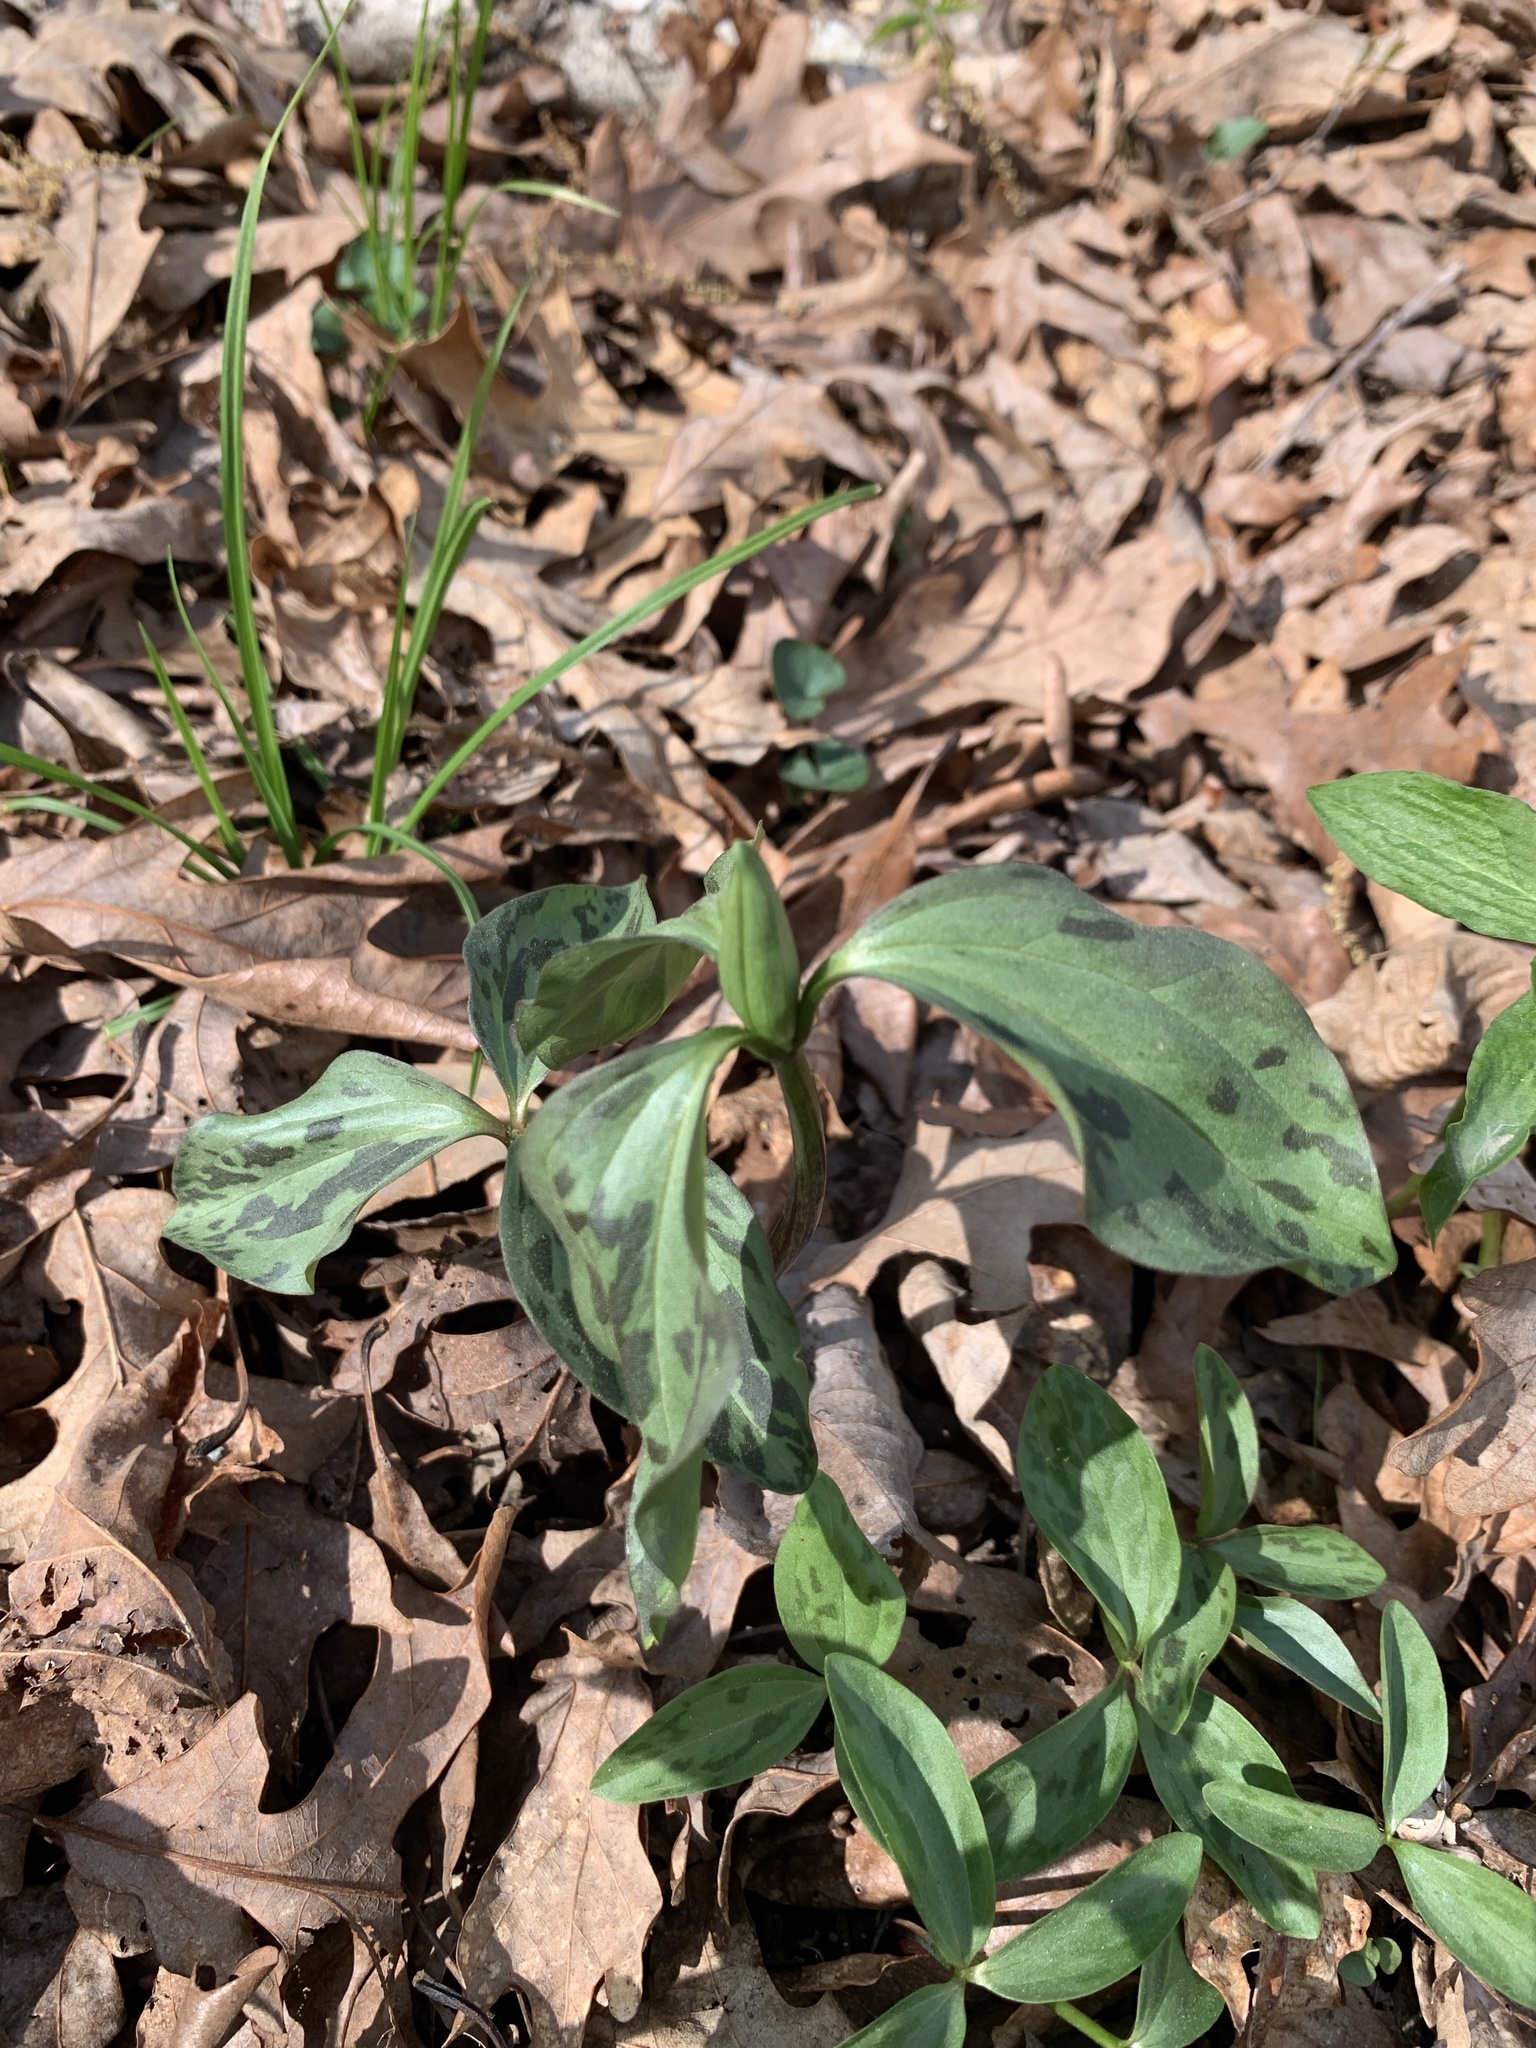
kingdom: Plantae
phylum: Tracheophyta
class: Liliopsida
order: Liliales
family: Melanthiaceae
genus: Trillium
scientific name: Trillium recurvatum
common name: Bloody butcher
